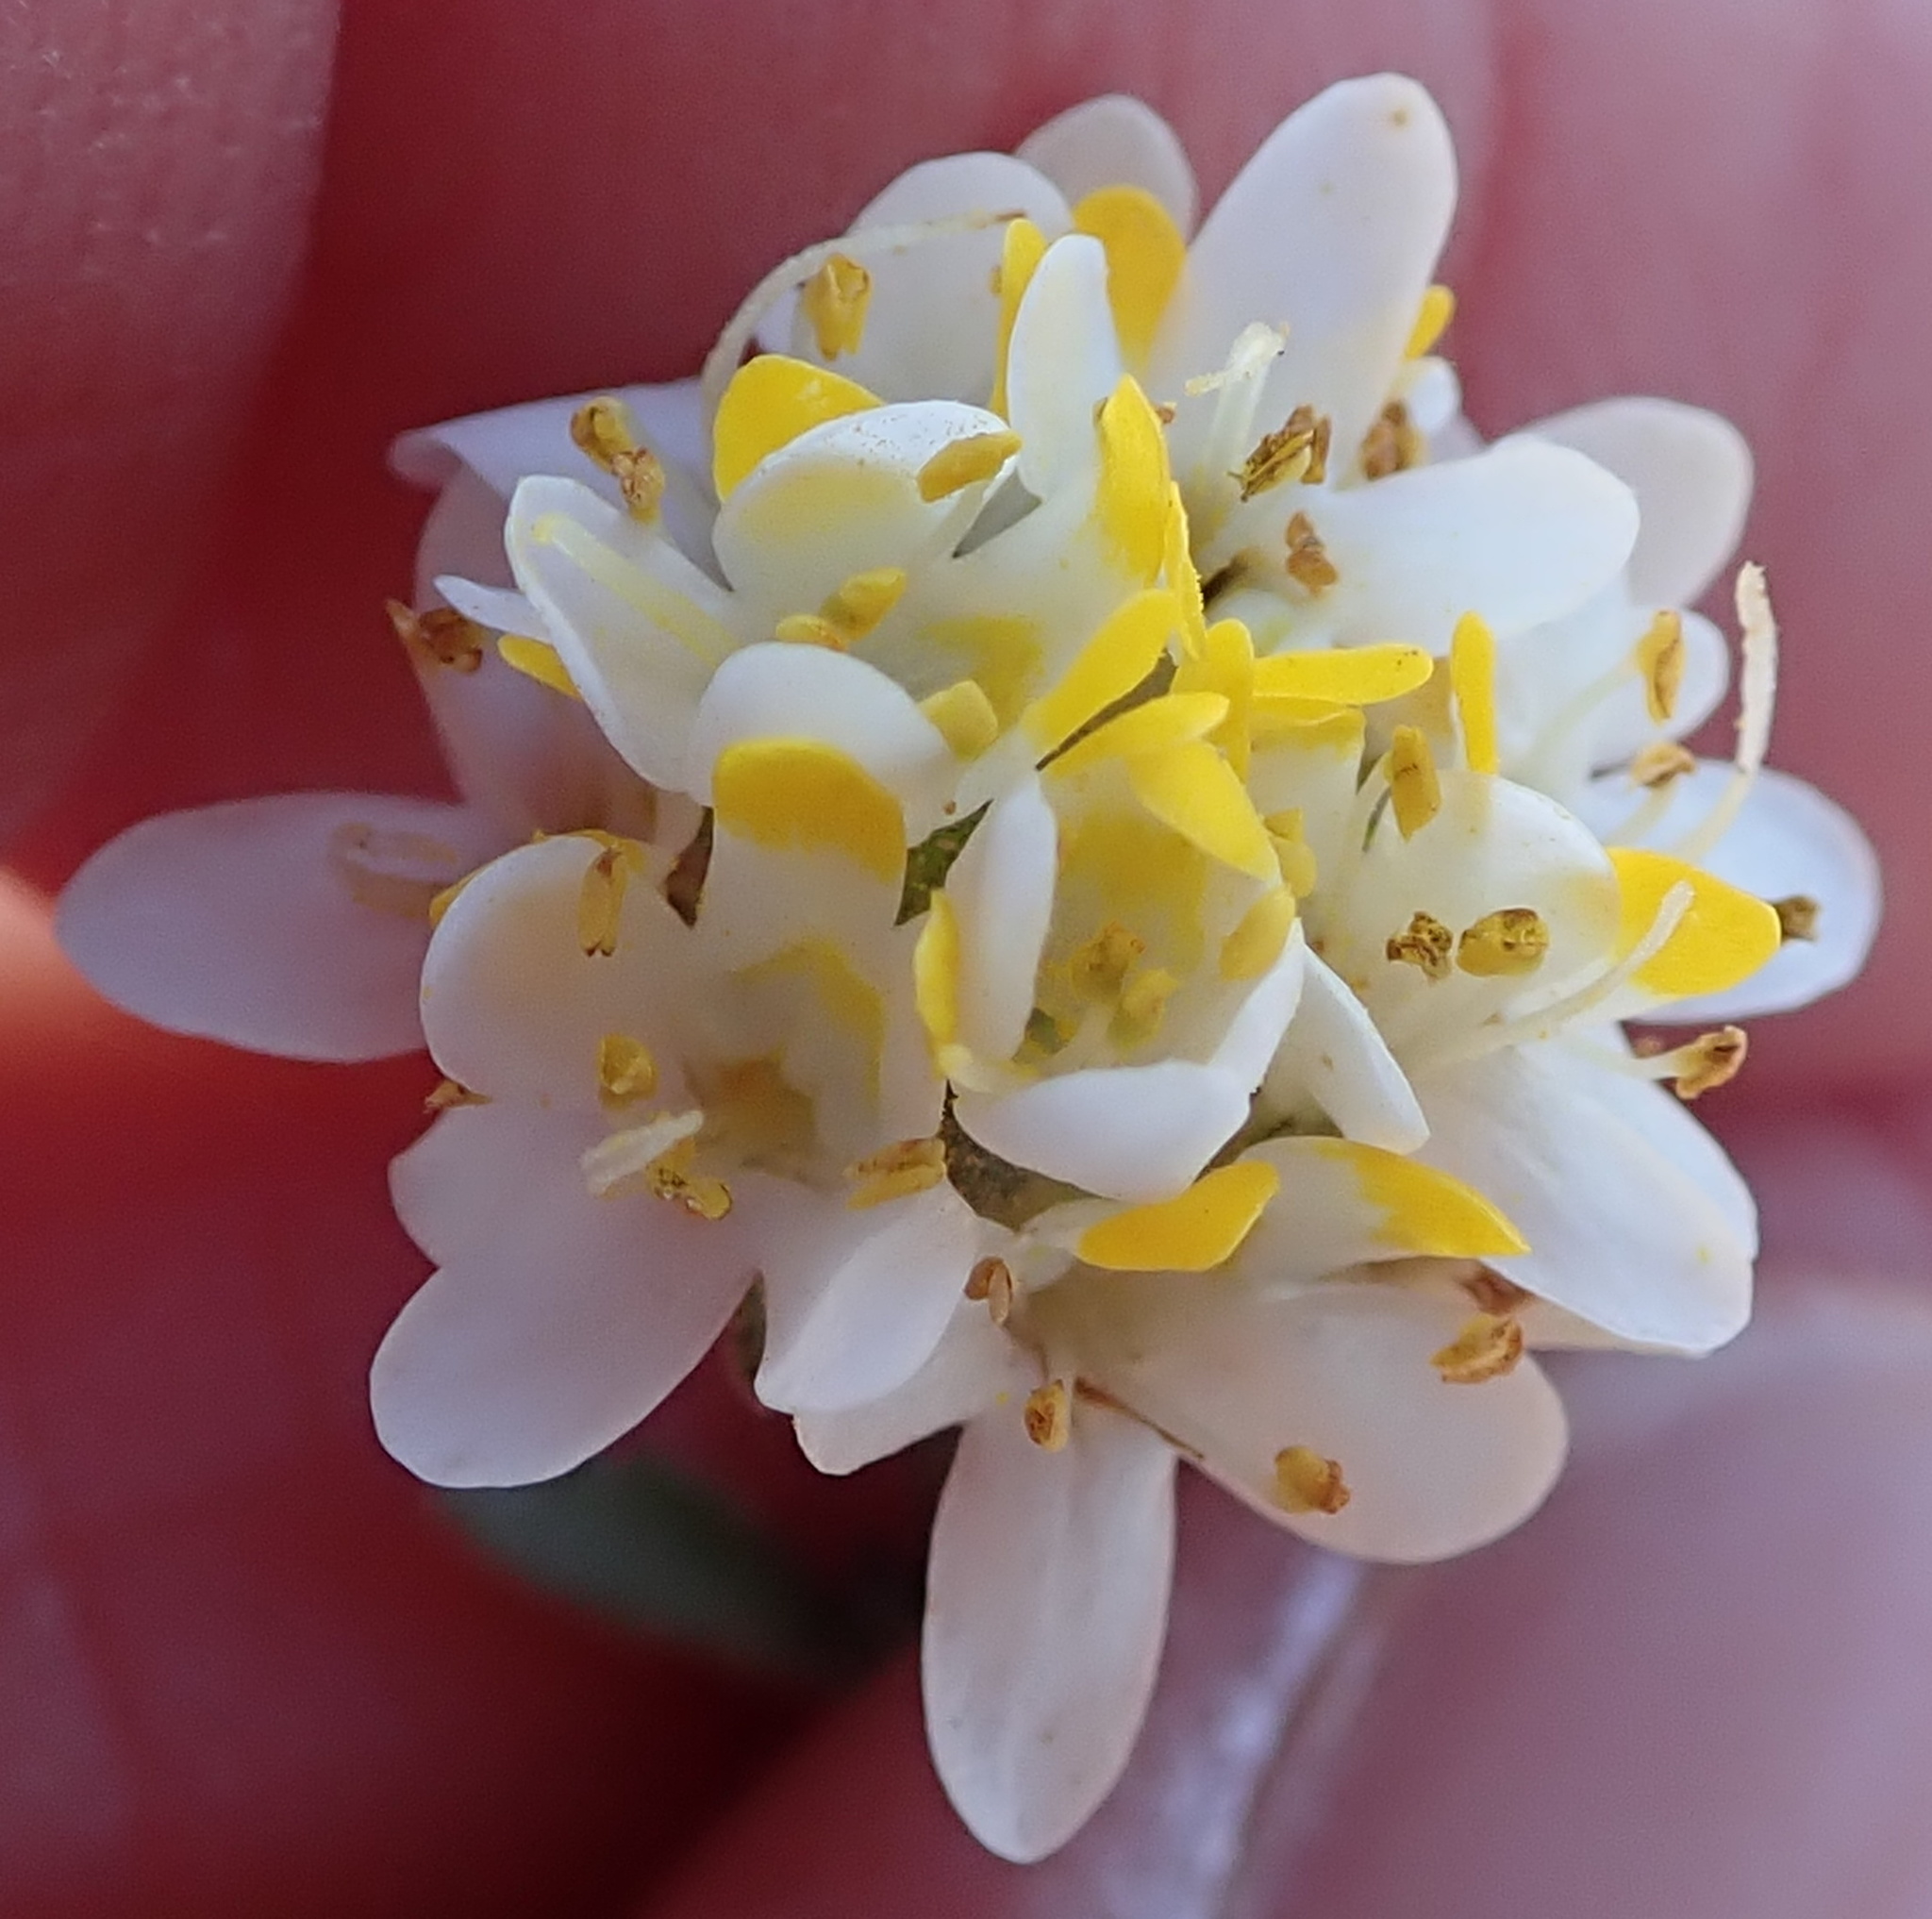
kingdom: Plantae
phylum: Tracheophyta
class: Magnoliopsida
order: Lamiales
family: Scrophulariaceae
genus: Polycarena
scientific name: Polycarena aurea
